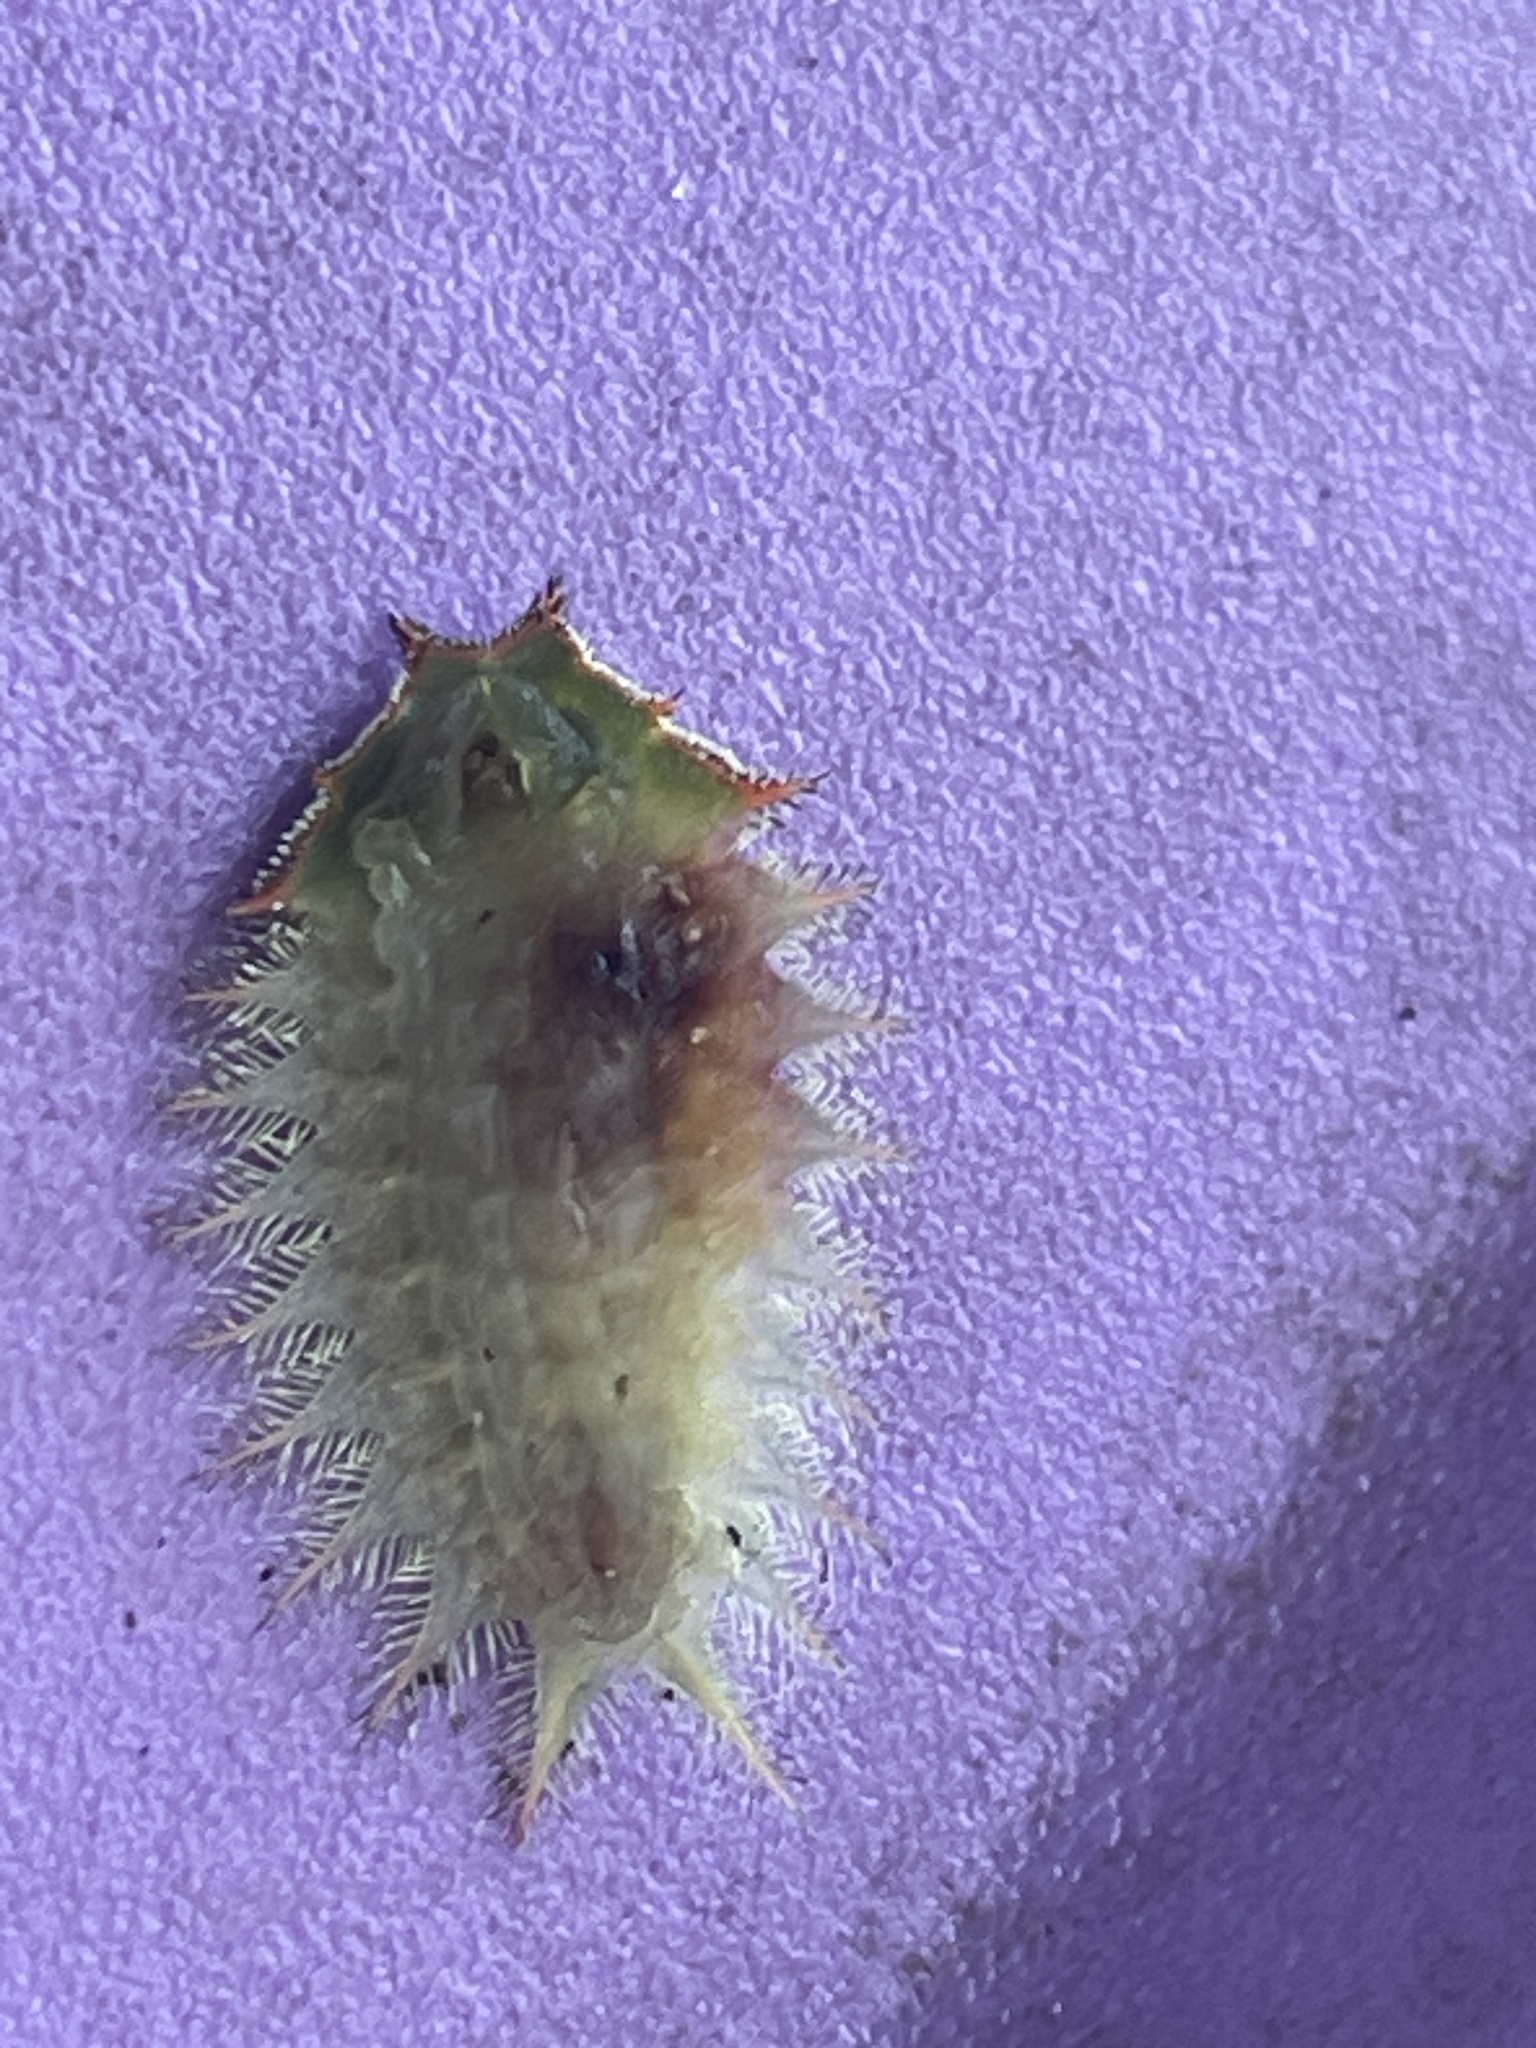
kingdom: Animalia
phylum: Arthropoda
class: Insecta
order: Lepidoptera
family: Limacodidae
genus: Isa
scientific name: Isa textula
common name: Crowned slug moth
